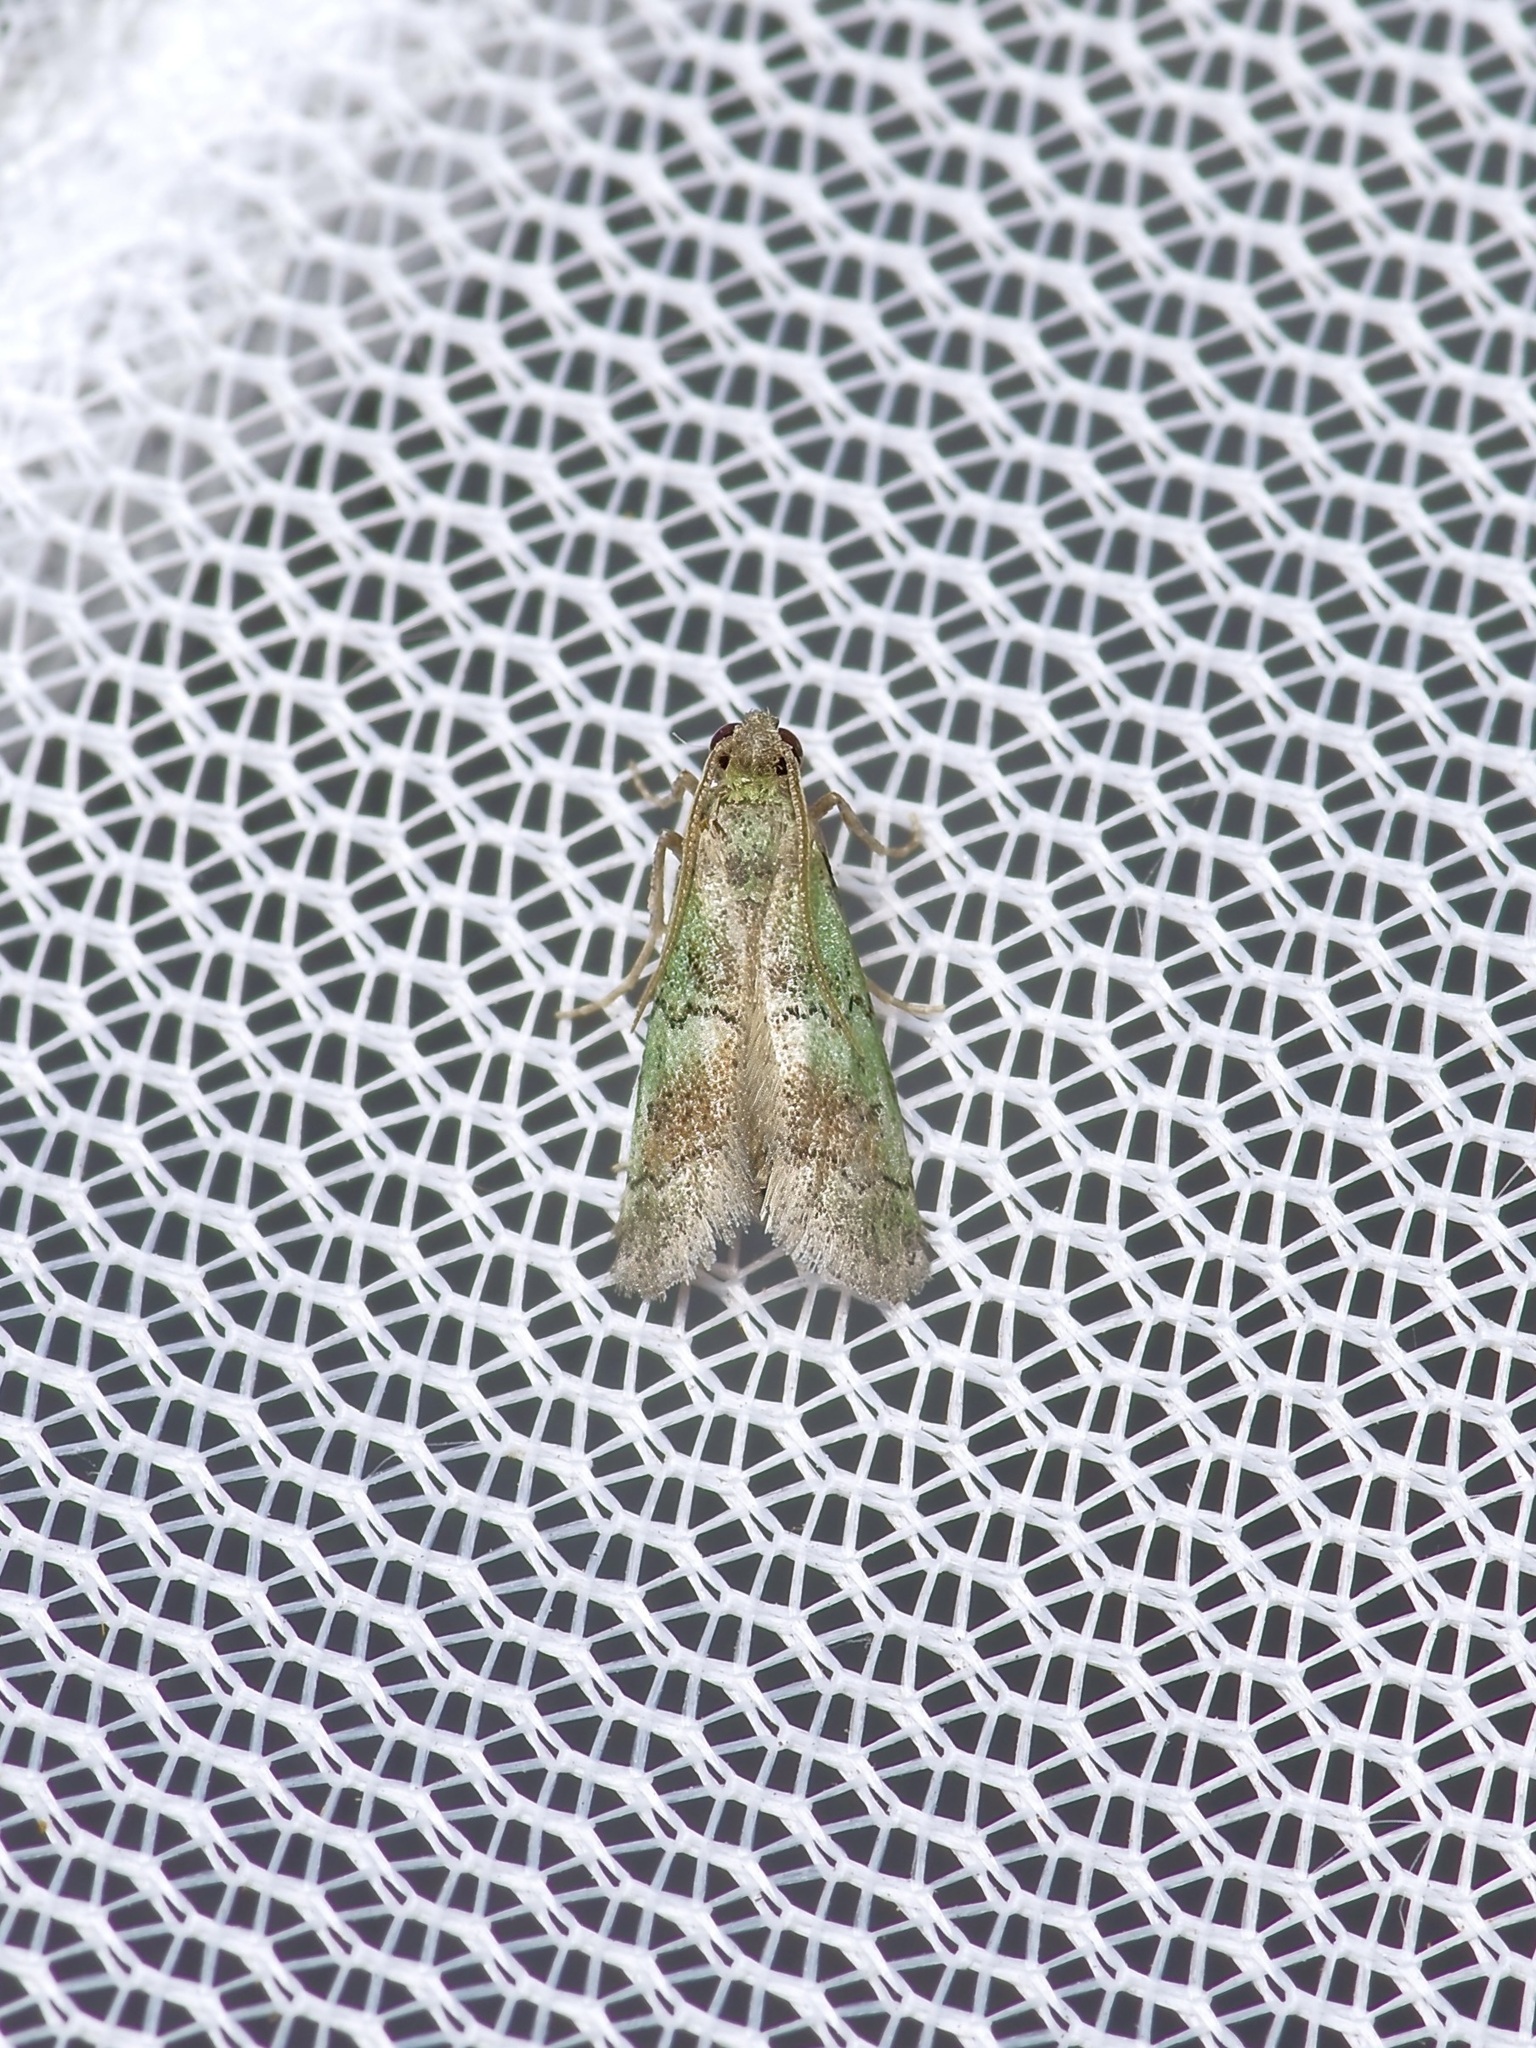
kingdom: Animalia
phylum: Arthropoda
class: Insecta
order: Lepidoptera
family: Pyralidae
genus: Cacotherapia
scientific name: Cacotherapia flexilinealis
